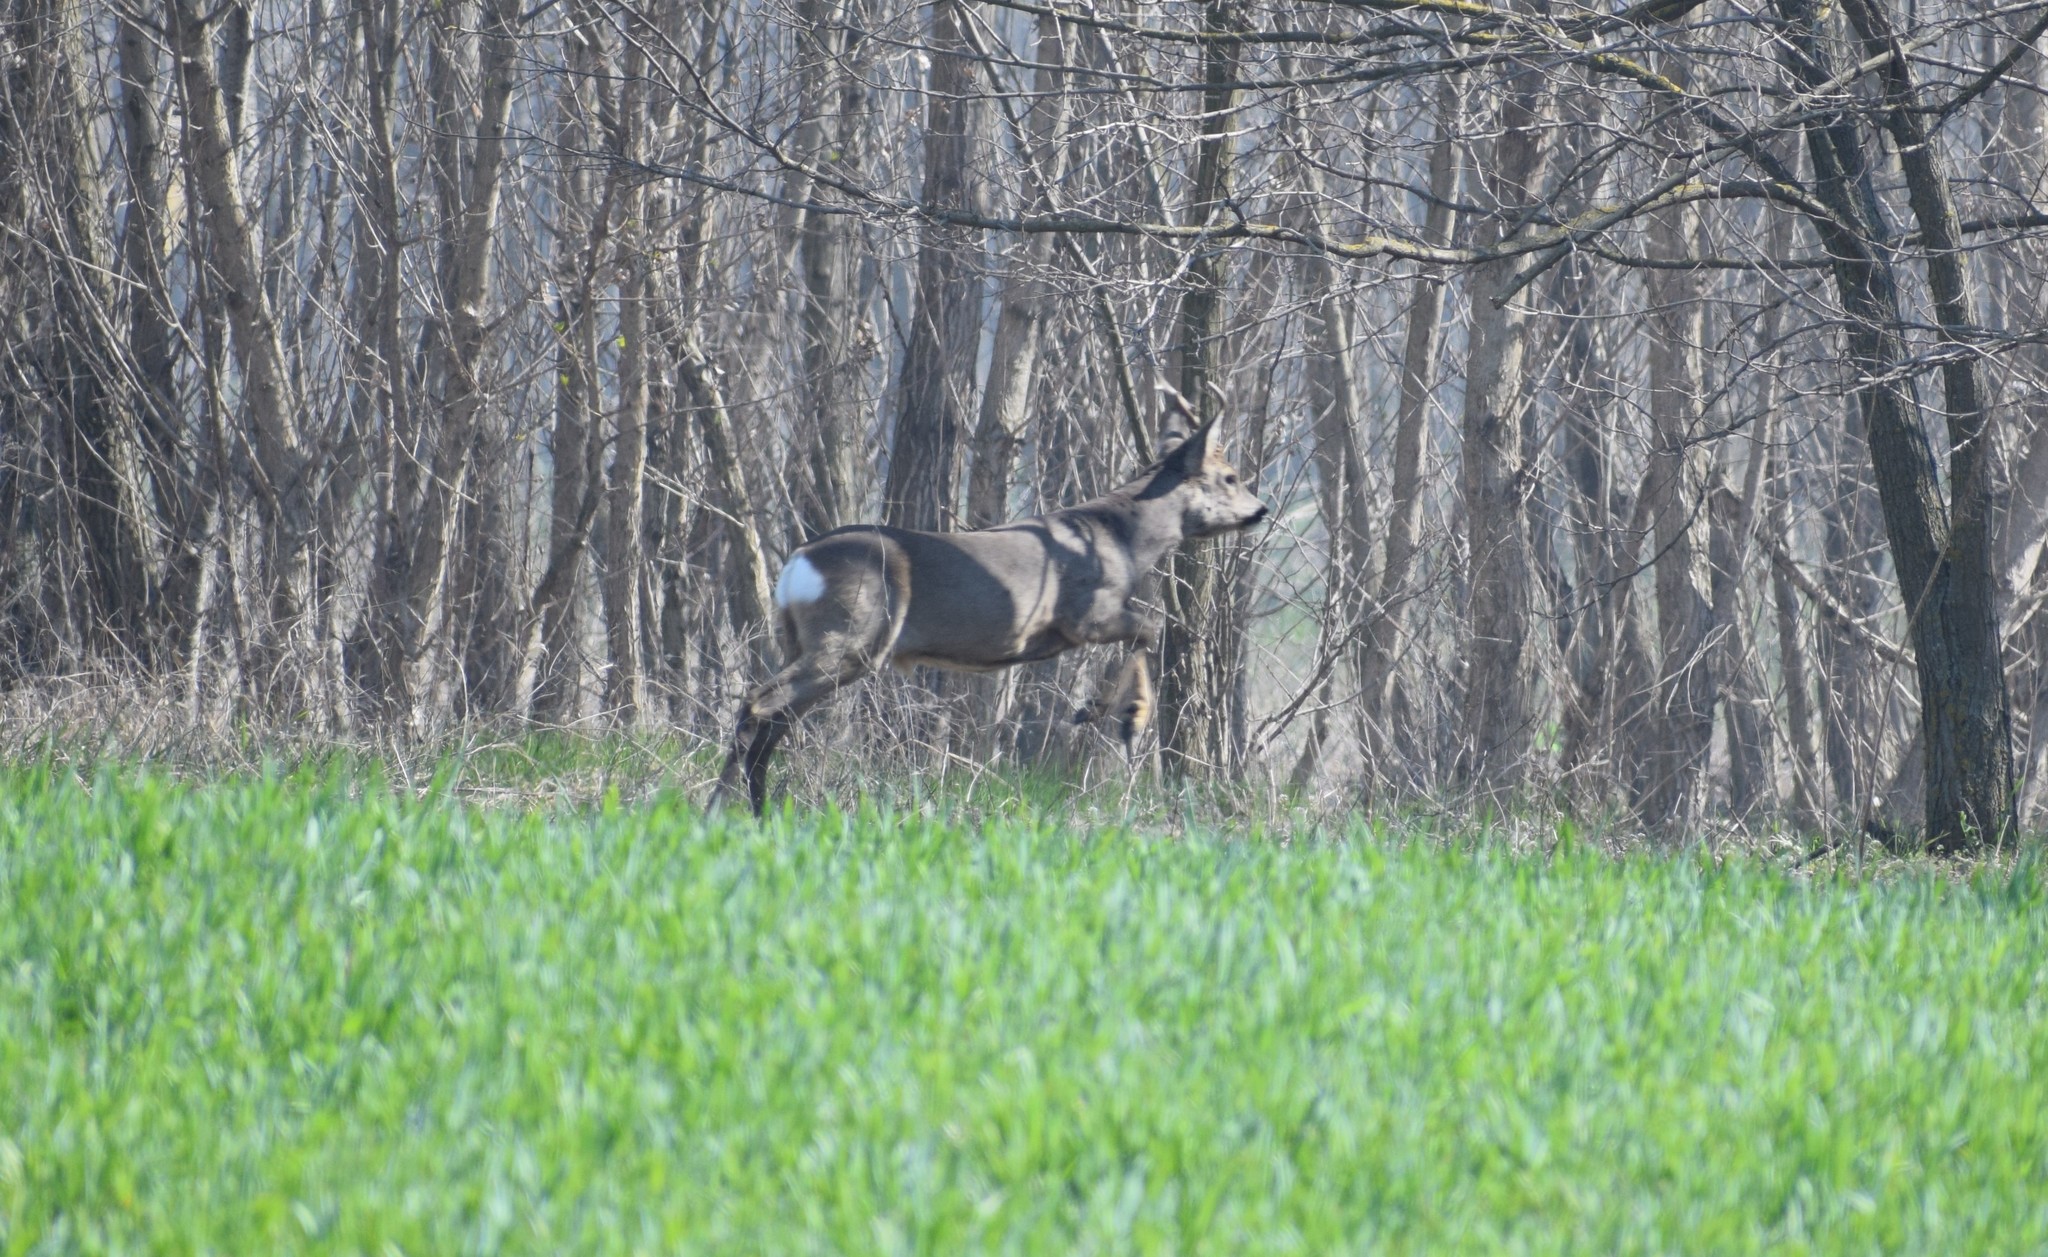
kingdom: Animalia
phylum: Chordata
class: Mammalia
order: Artiodactyla
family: Cervidae
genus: Capreolus
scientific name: Capreolus capreolus
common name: Western roe deer
